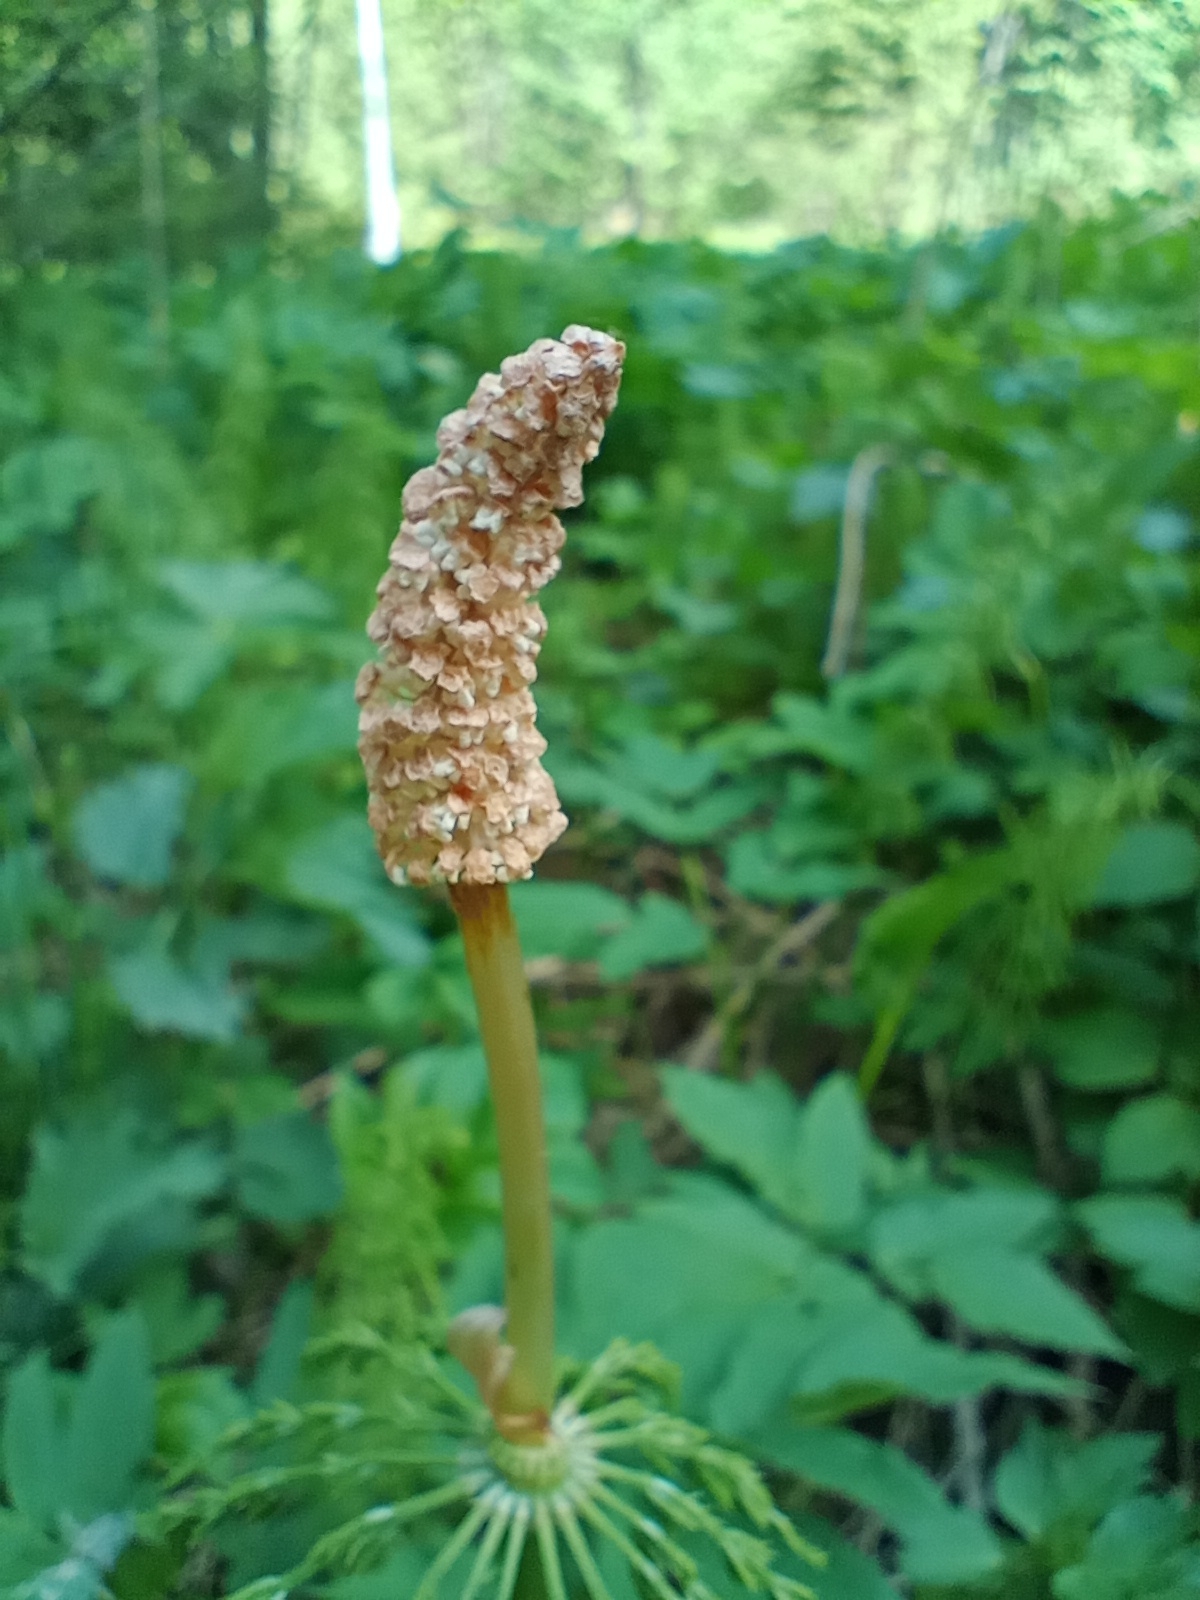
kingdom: Plantae
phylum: Tracheophyta
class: Polypodiopsida
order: Equisetales
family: Equisetaceae
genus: Equisetum
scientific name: Equisetum sylvaticum
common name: Wood horsetail
